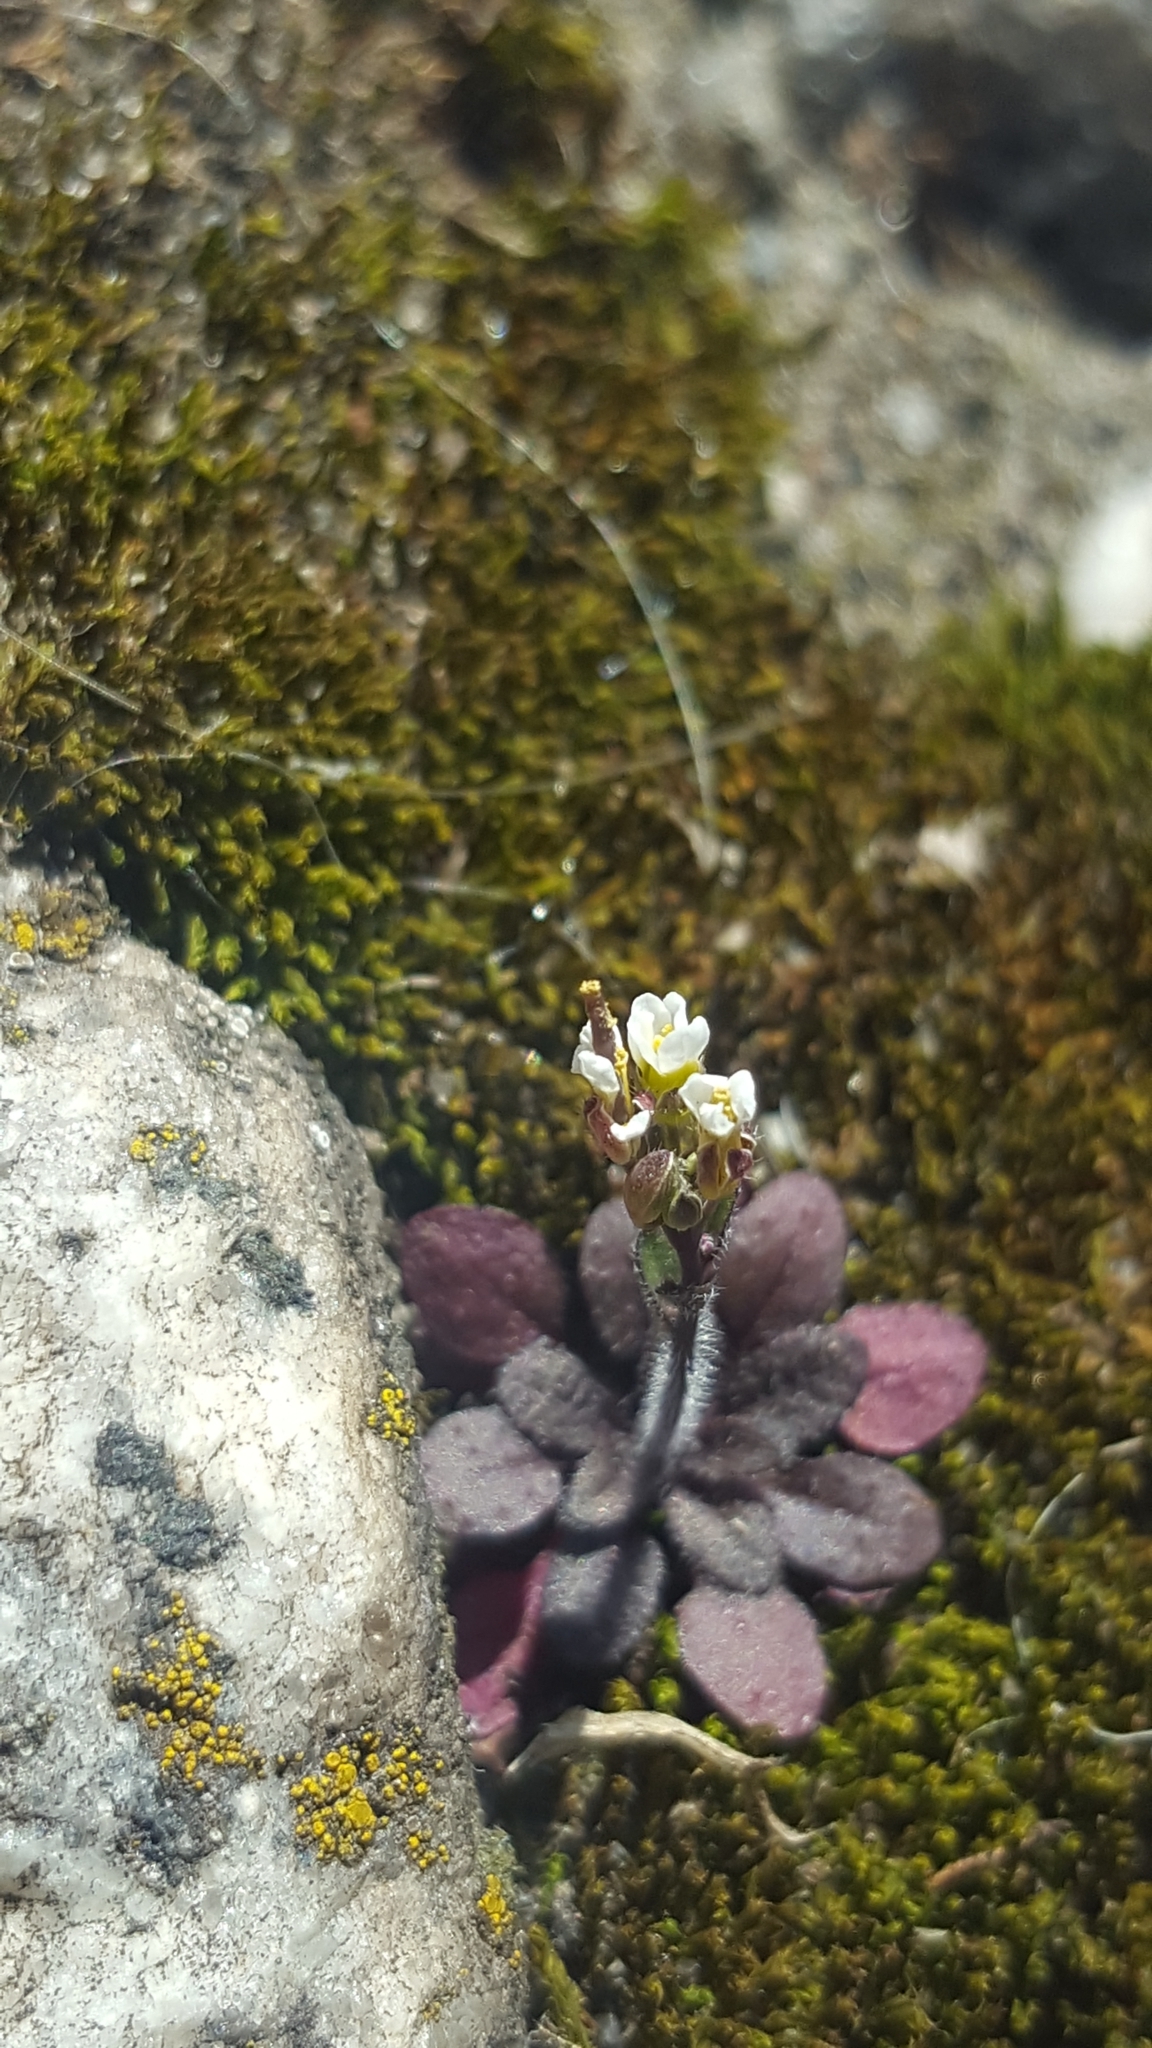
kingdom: Plantae
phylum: Tracheophyta
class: Magnoliopsida
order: Brassicales
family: Brassicaceae
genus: Arabidopsis
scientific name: Arabidopsis thaliana
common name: Thale cress
